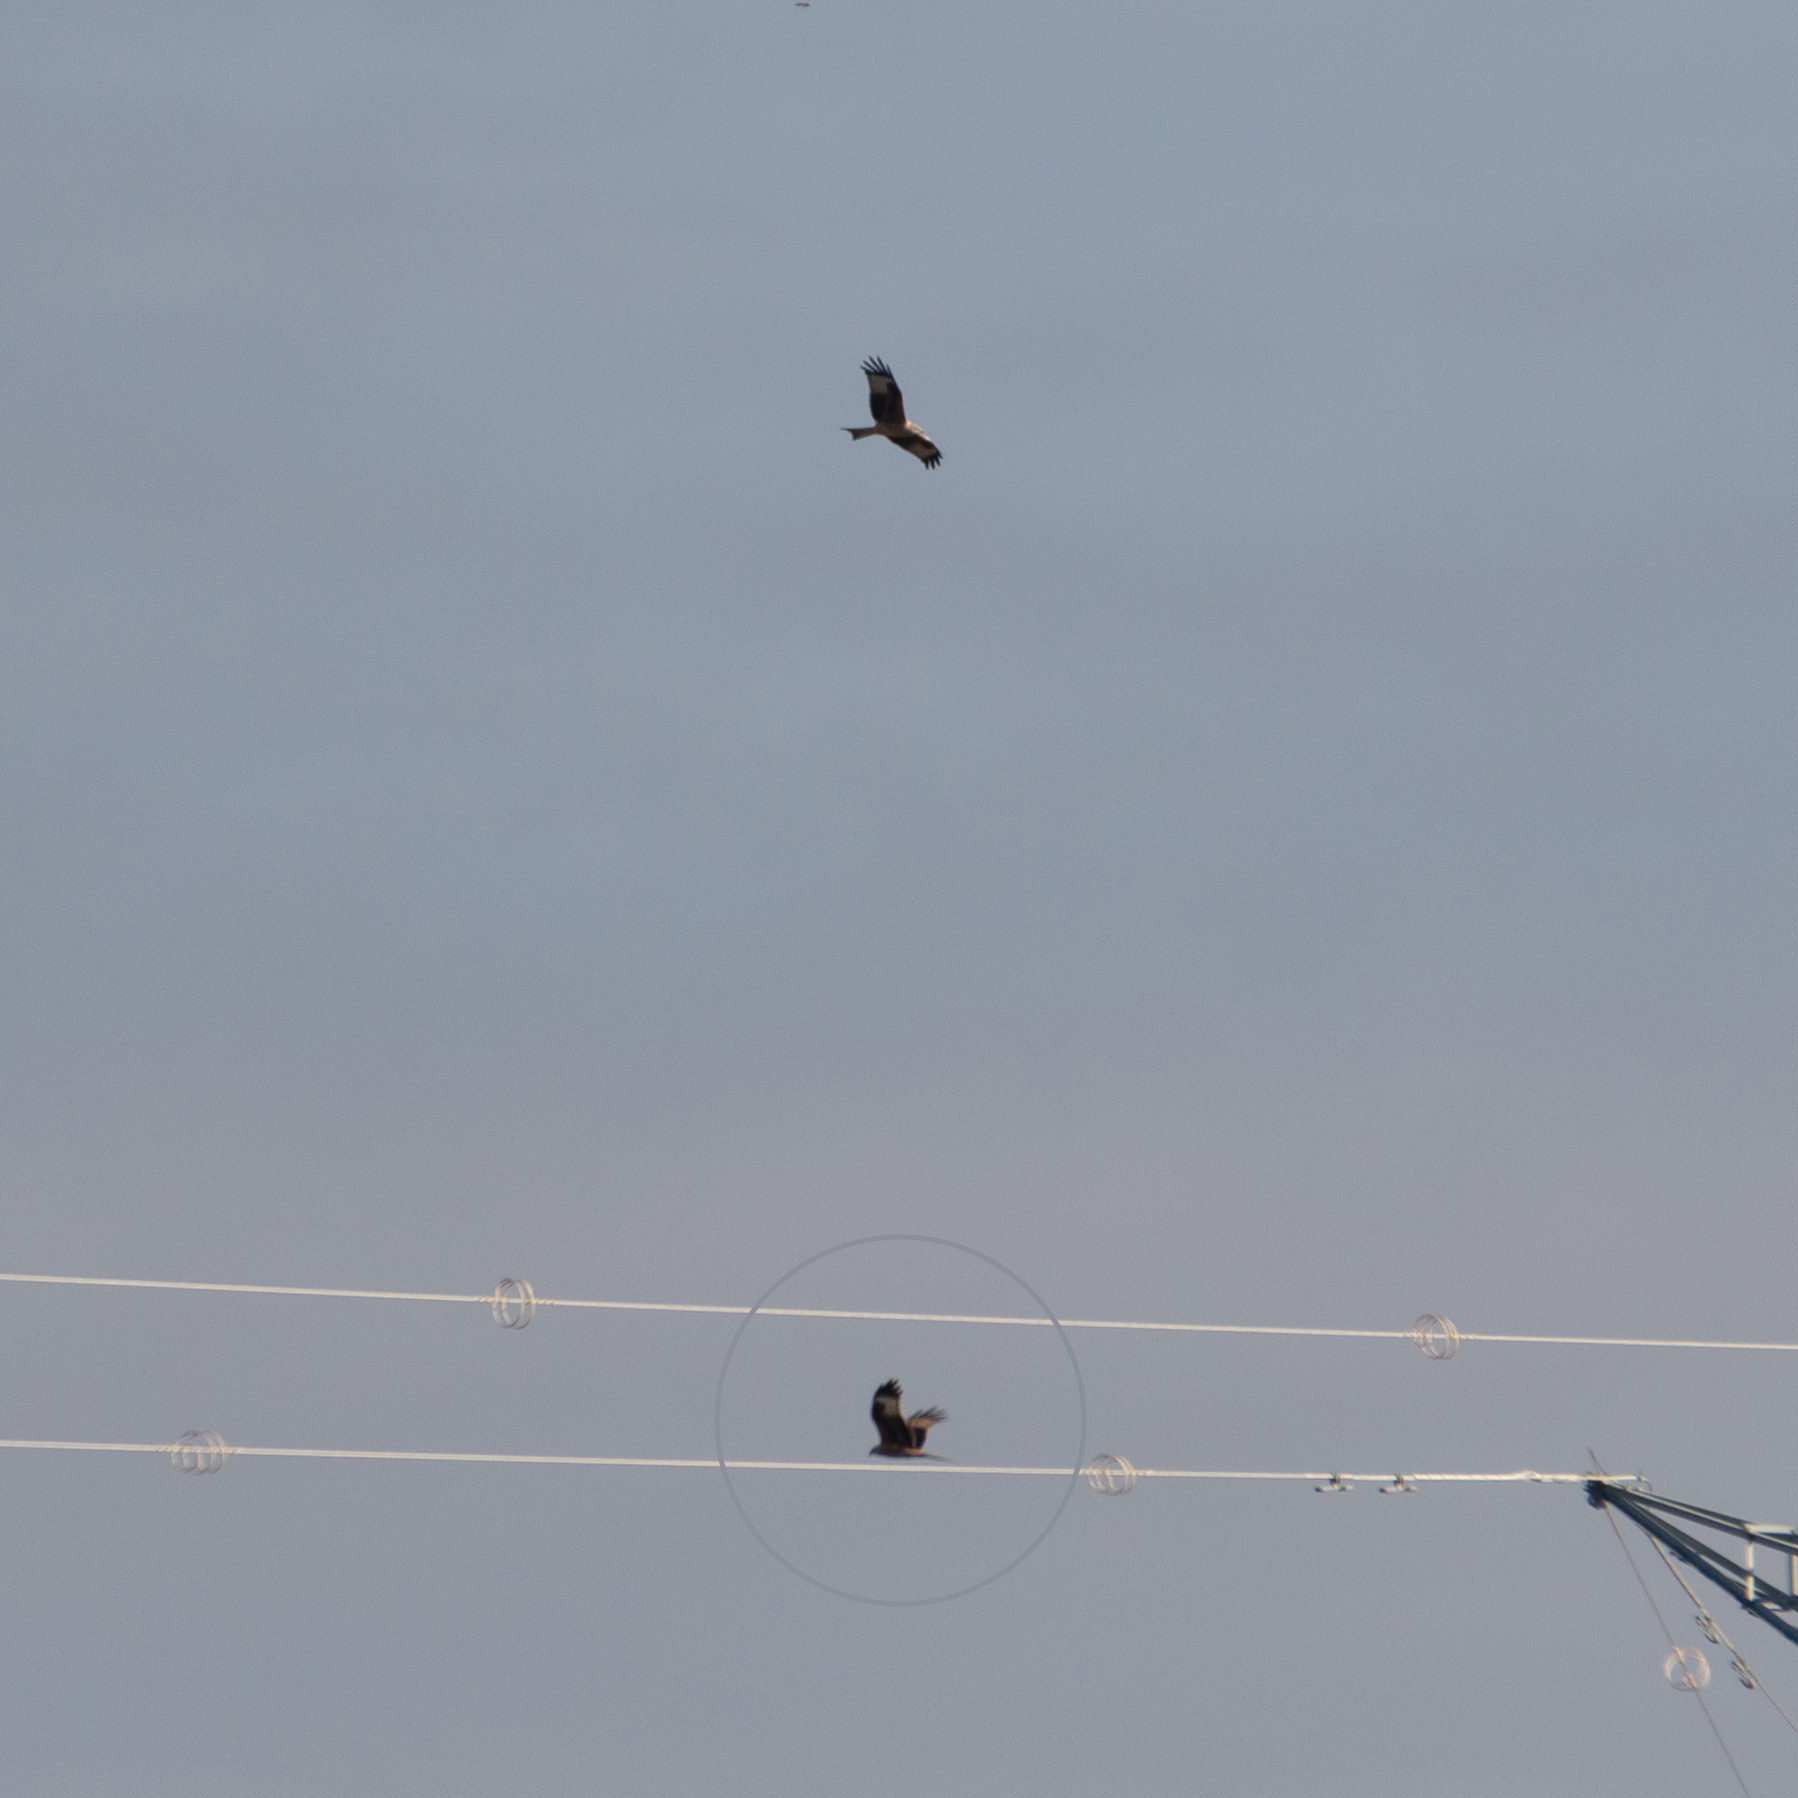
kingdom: Animalia
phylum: Chordata
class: Aves
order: Accipitriformes
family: Accipitridae
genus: Milvus
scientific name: Milvus milvus
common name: Red kite
